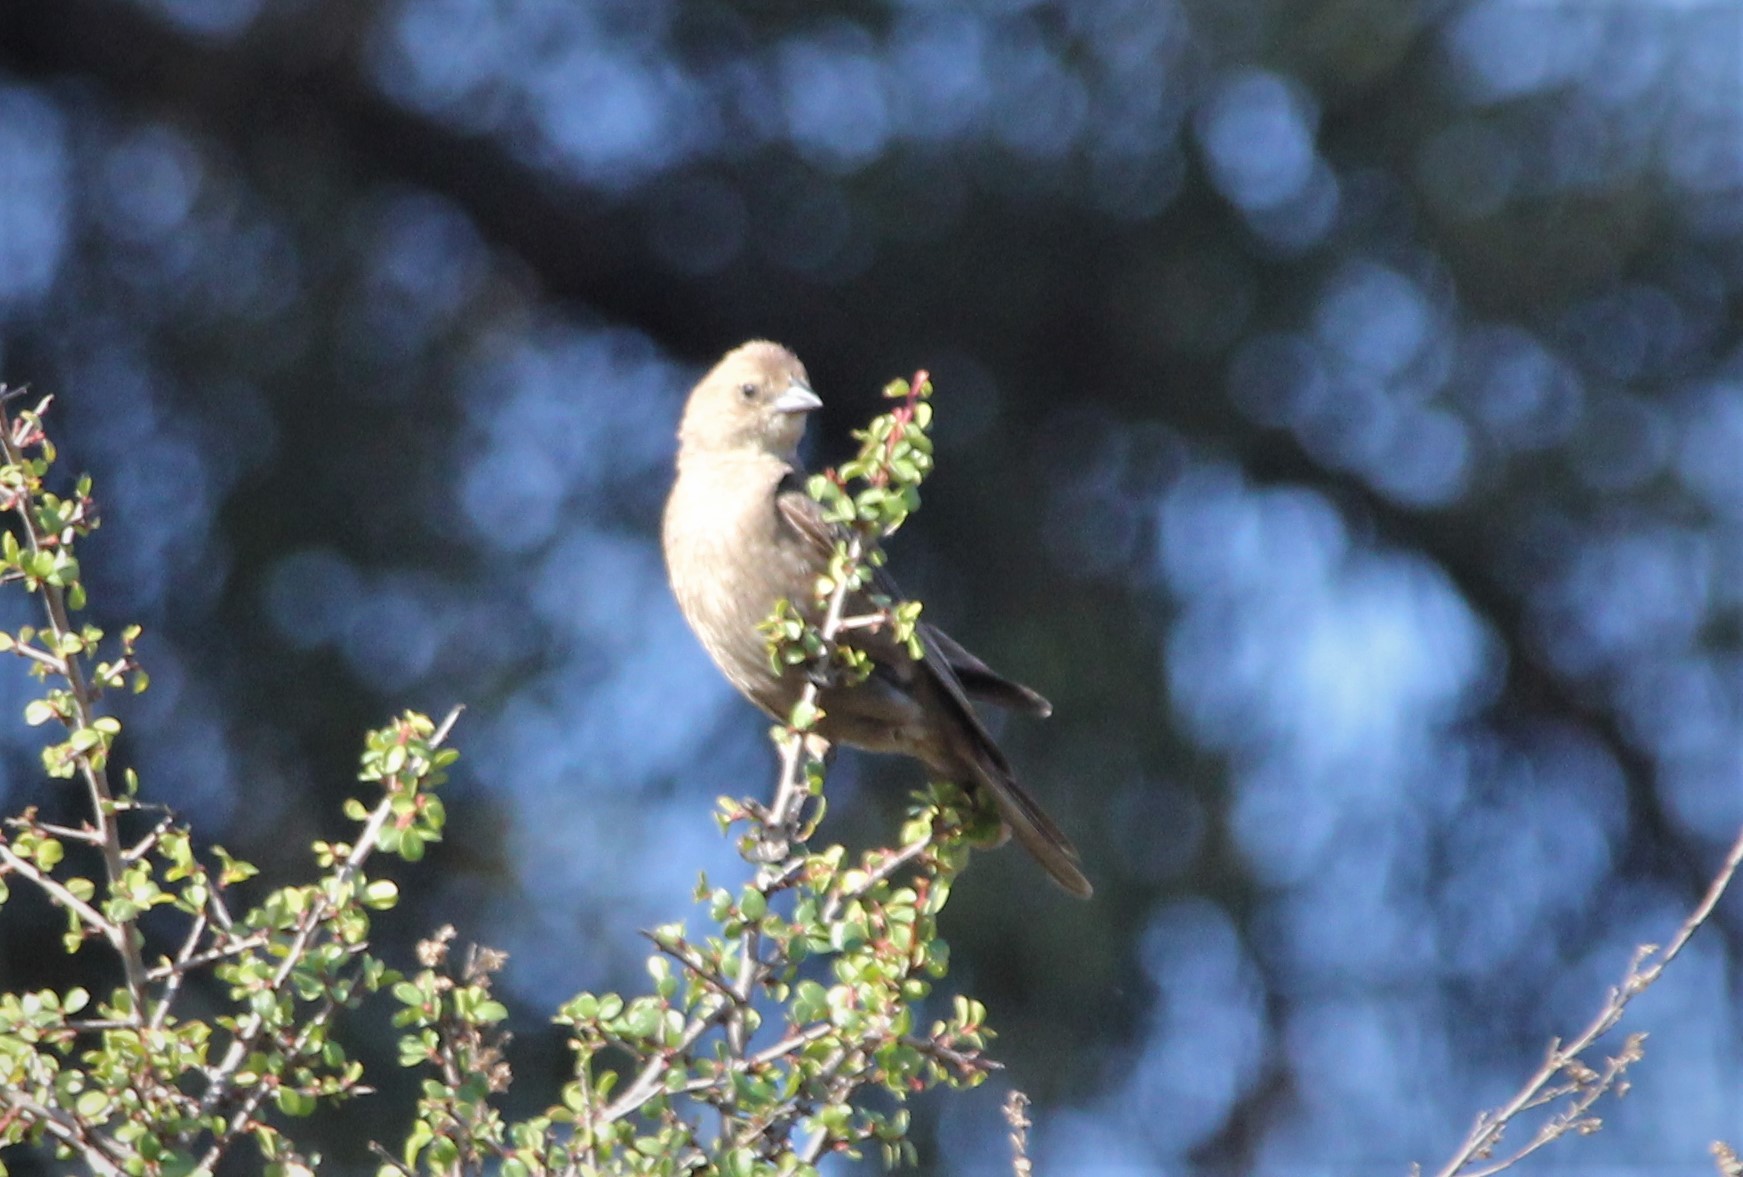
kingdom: Animalia
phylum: Chordata
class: Aves
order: Passeriformes
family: Icteridae
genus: Molothrus
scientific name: Molothrus ater
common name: Brown-headed cowbird
